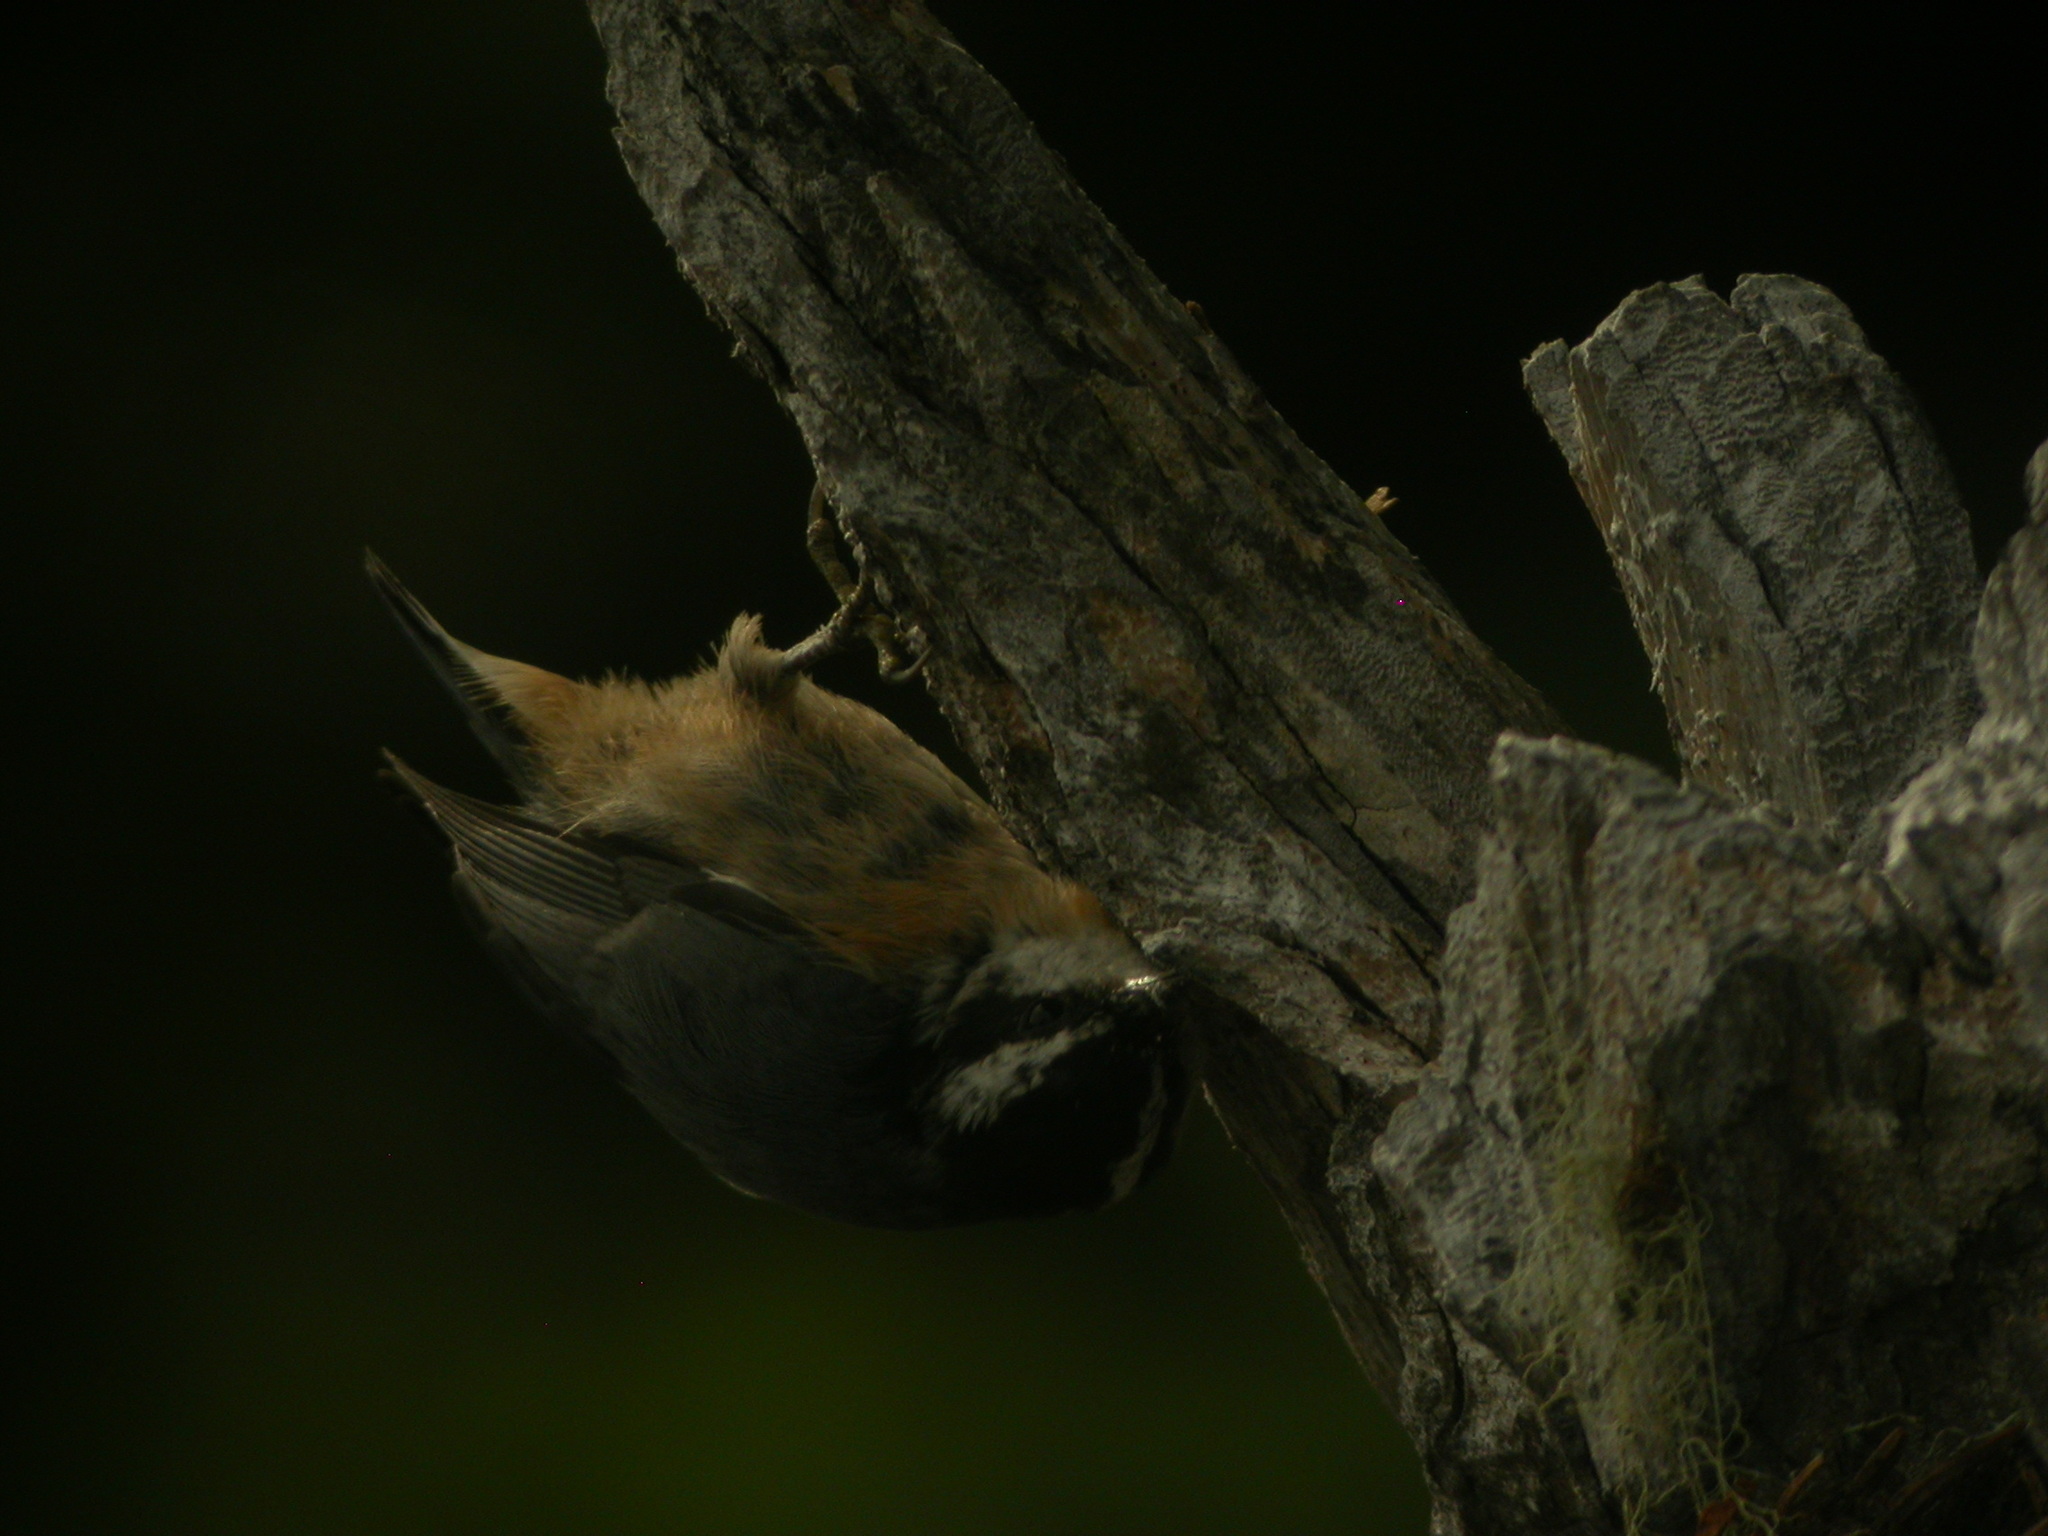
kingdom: Animalia
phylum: Chordata
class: Aves
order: Passeriformes
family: Sittidae
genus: Sitta
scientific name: Sitta canadensis
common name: Red-breasted nuthatch
